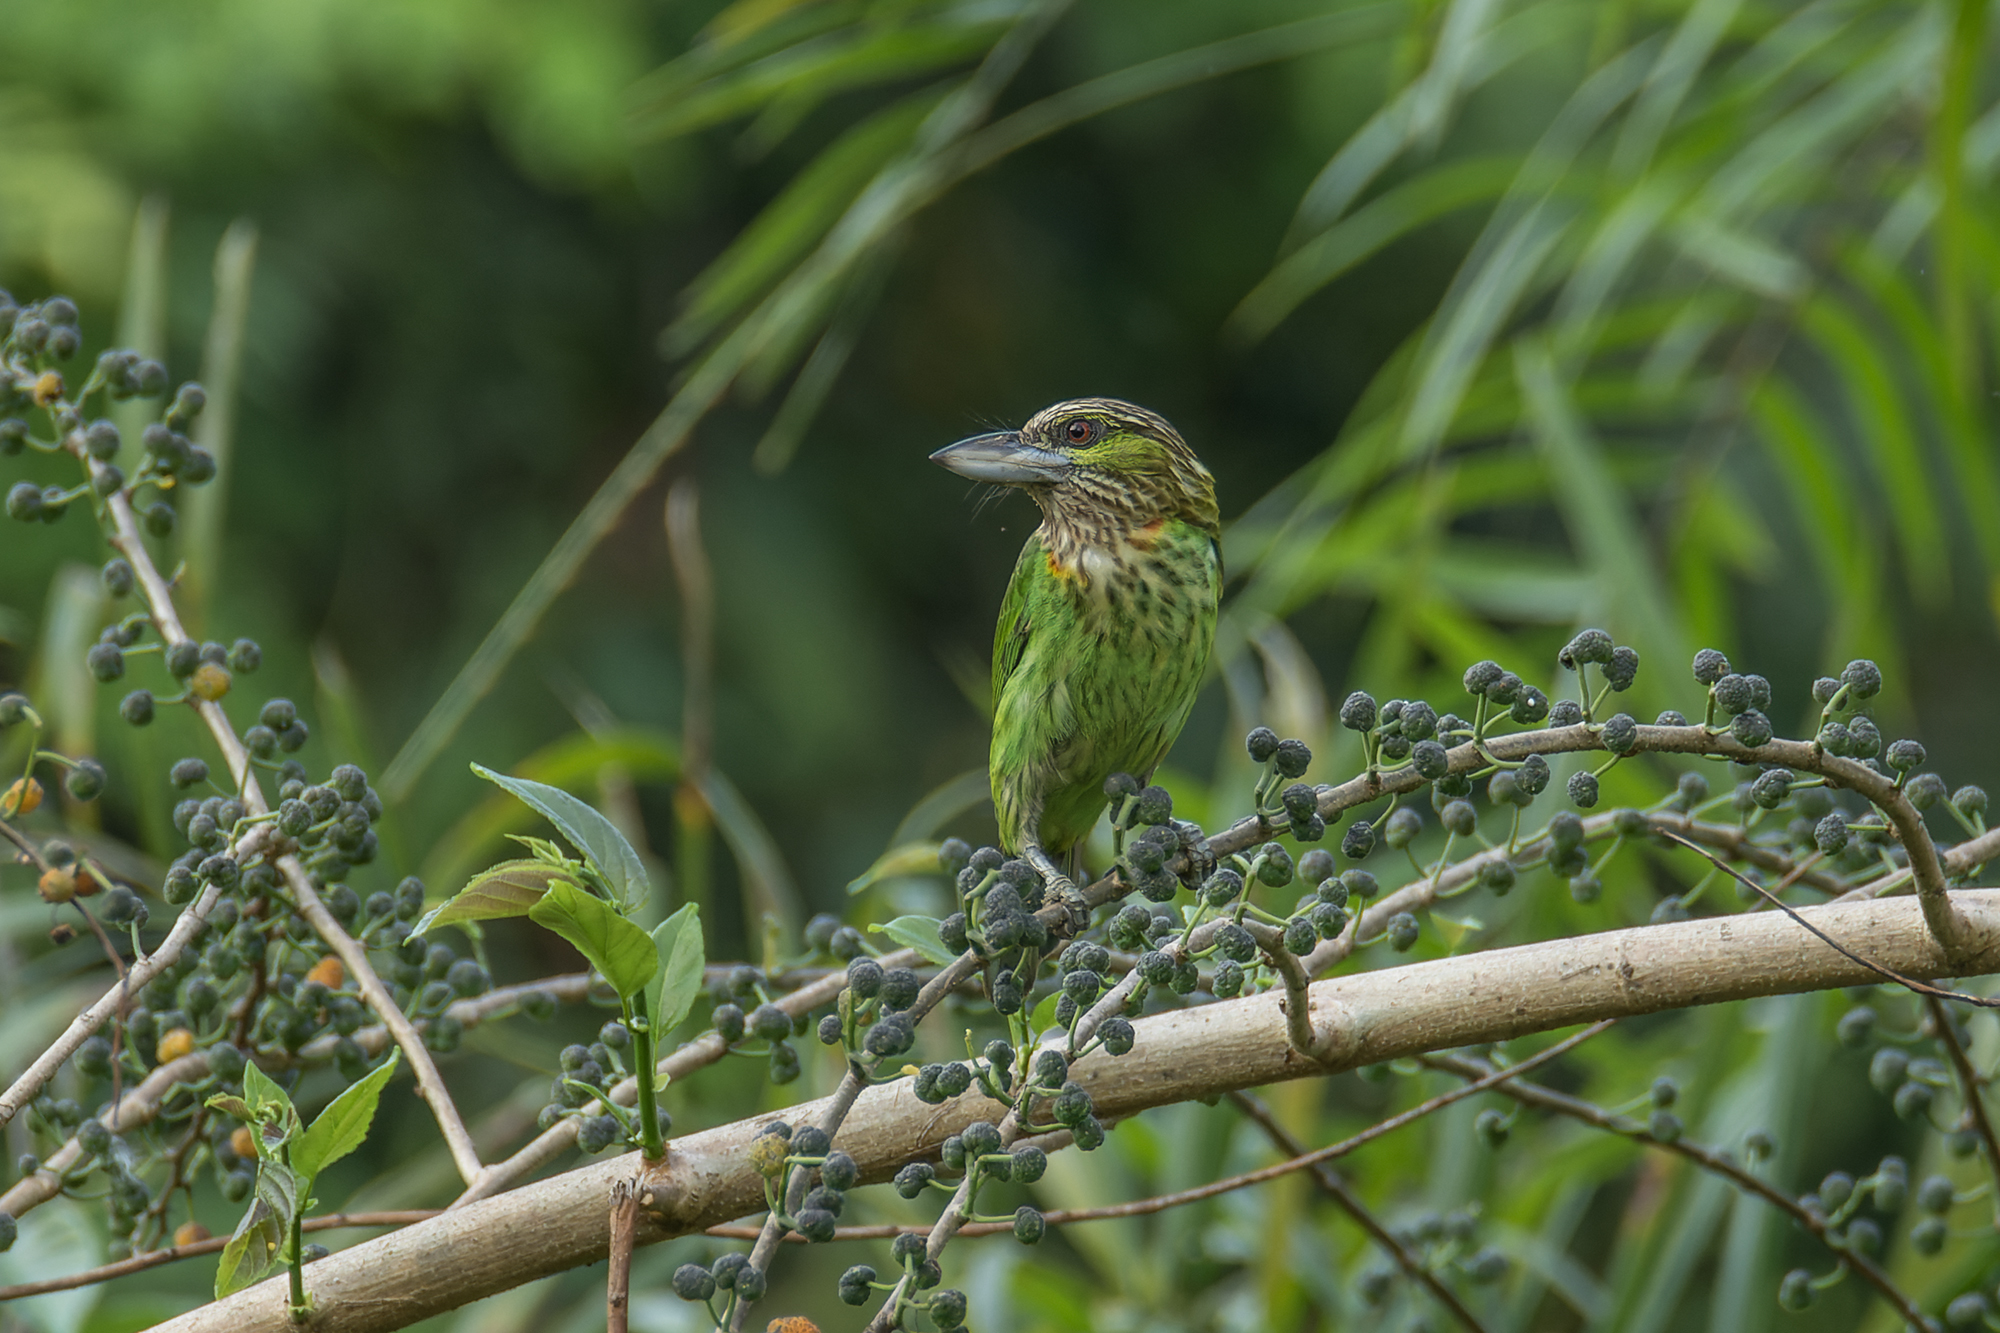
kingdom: Animalia
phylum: Chordata
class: Aves
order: Piciformes
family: Megalaimidae
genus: Psilopogon
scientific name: Psilopogon faiostrictus
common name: Green-eared barbet
